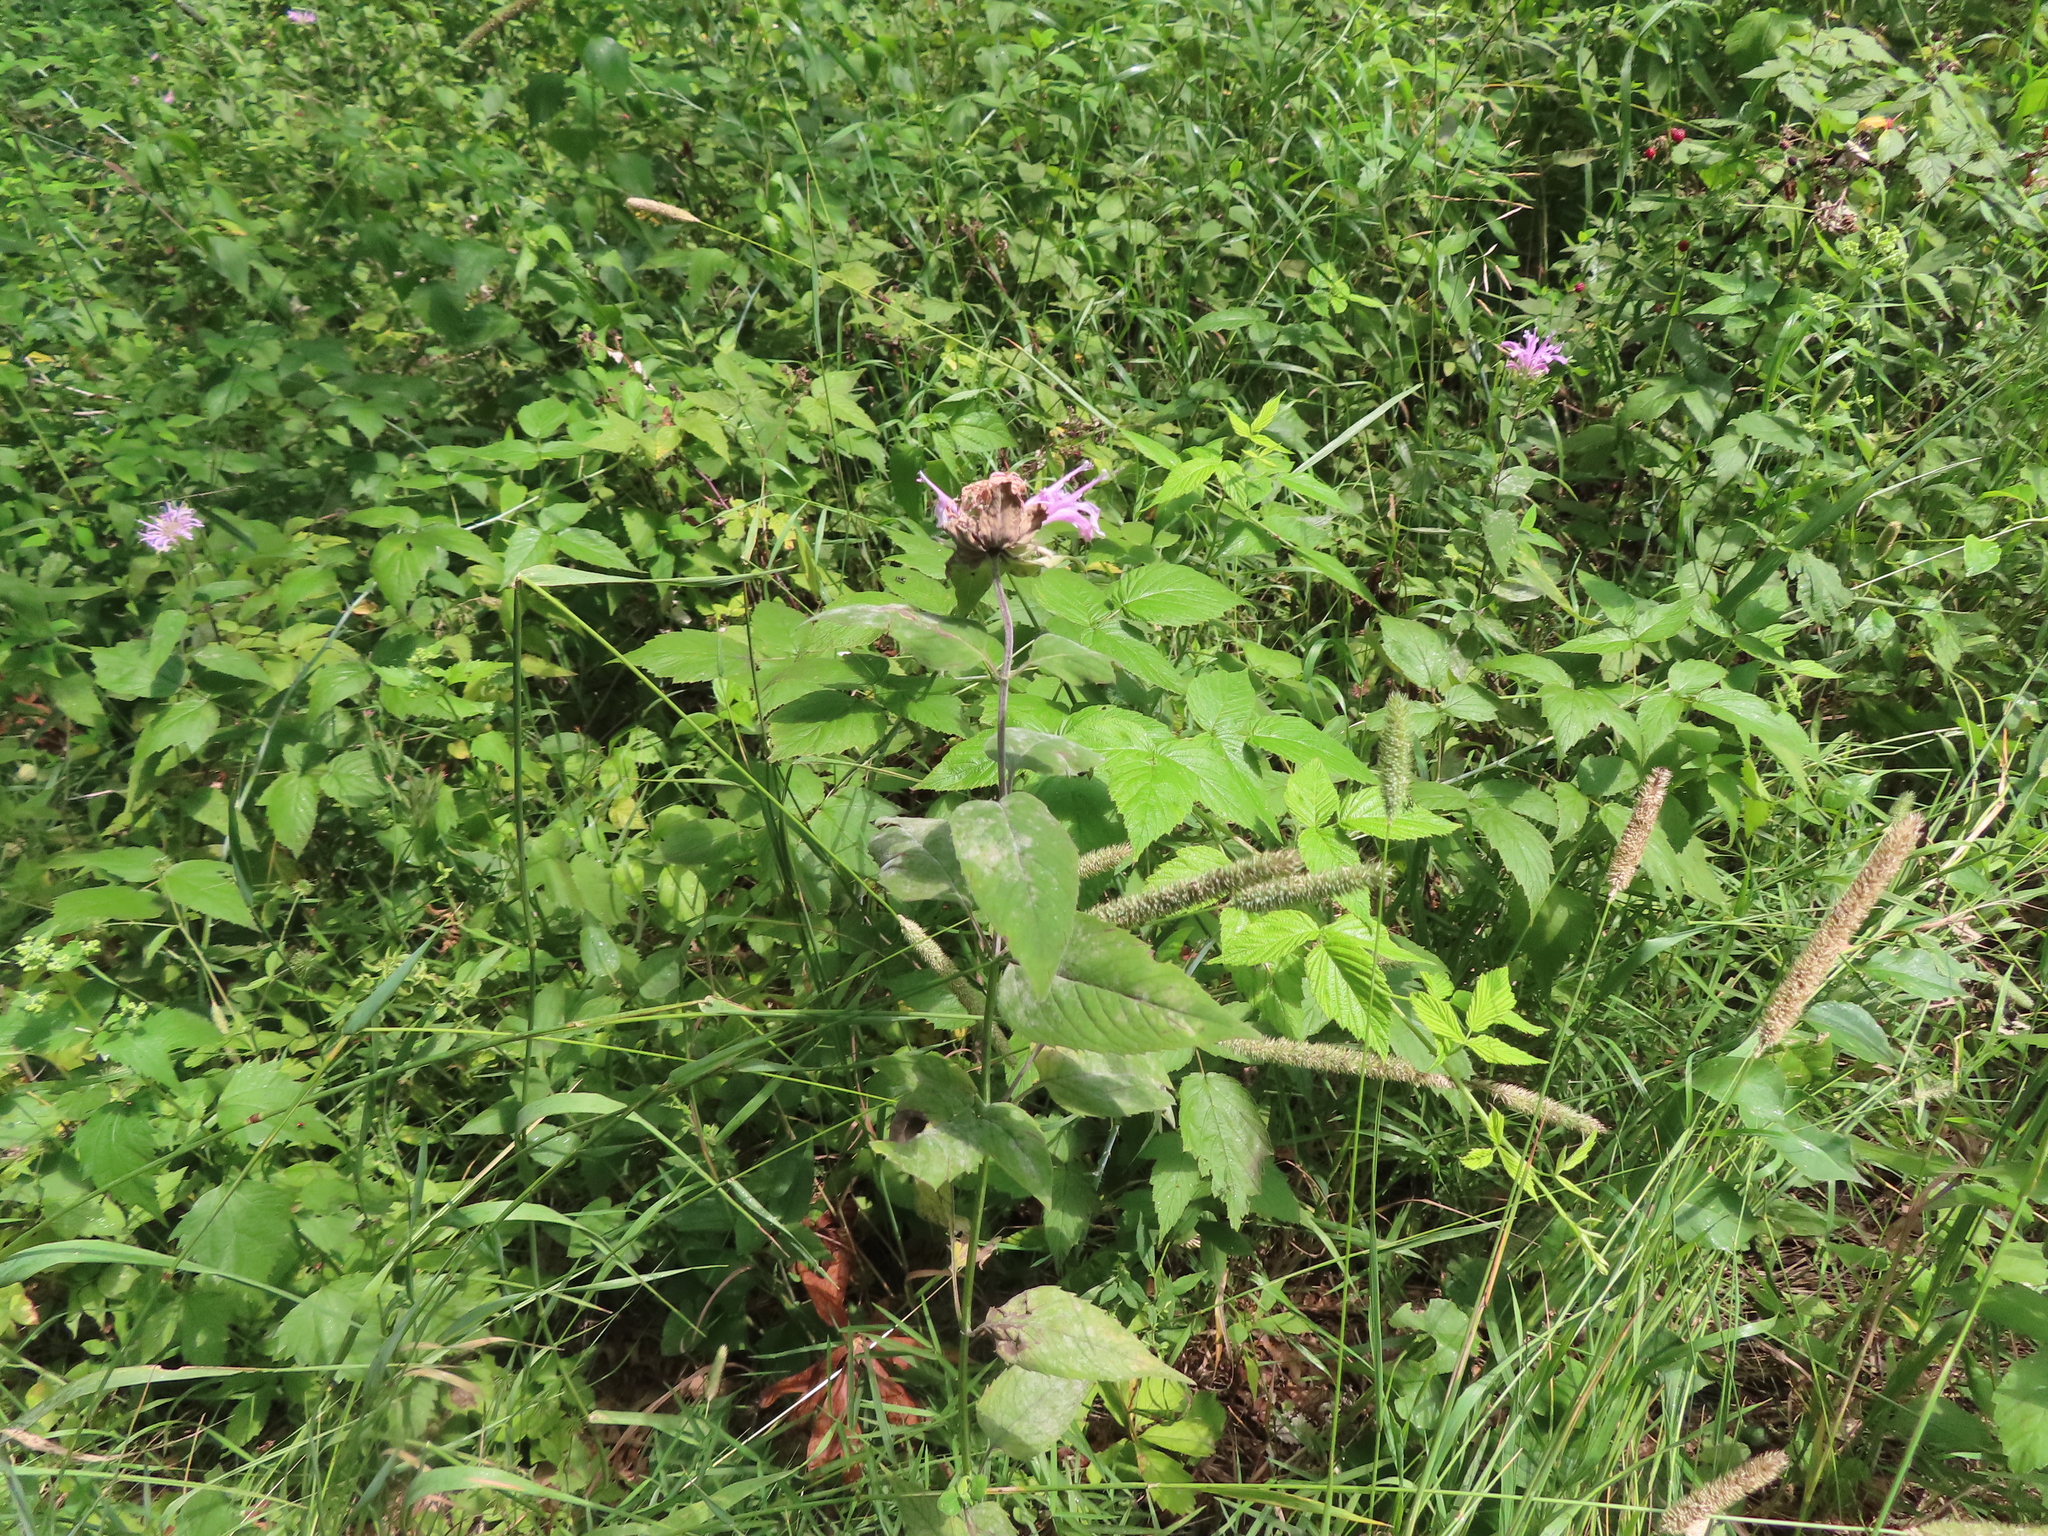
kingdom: Plantae
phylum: Tracheophyta
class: Liliopsida
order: Poales
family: Poaceae
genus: Phleum
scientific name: Phleum pratense
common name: Timothy grass
